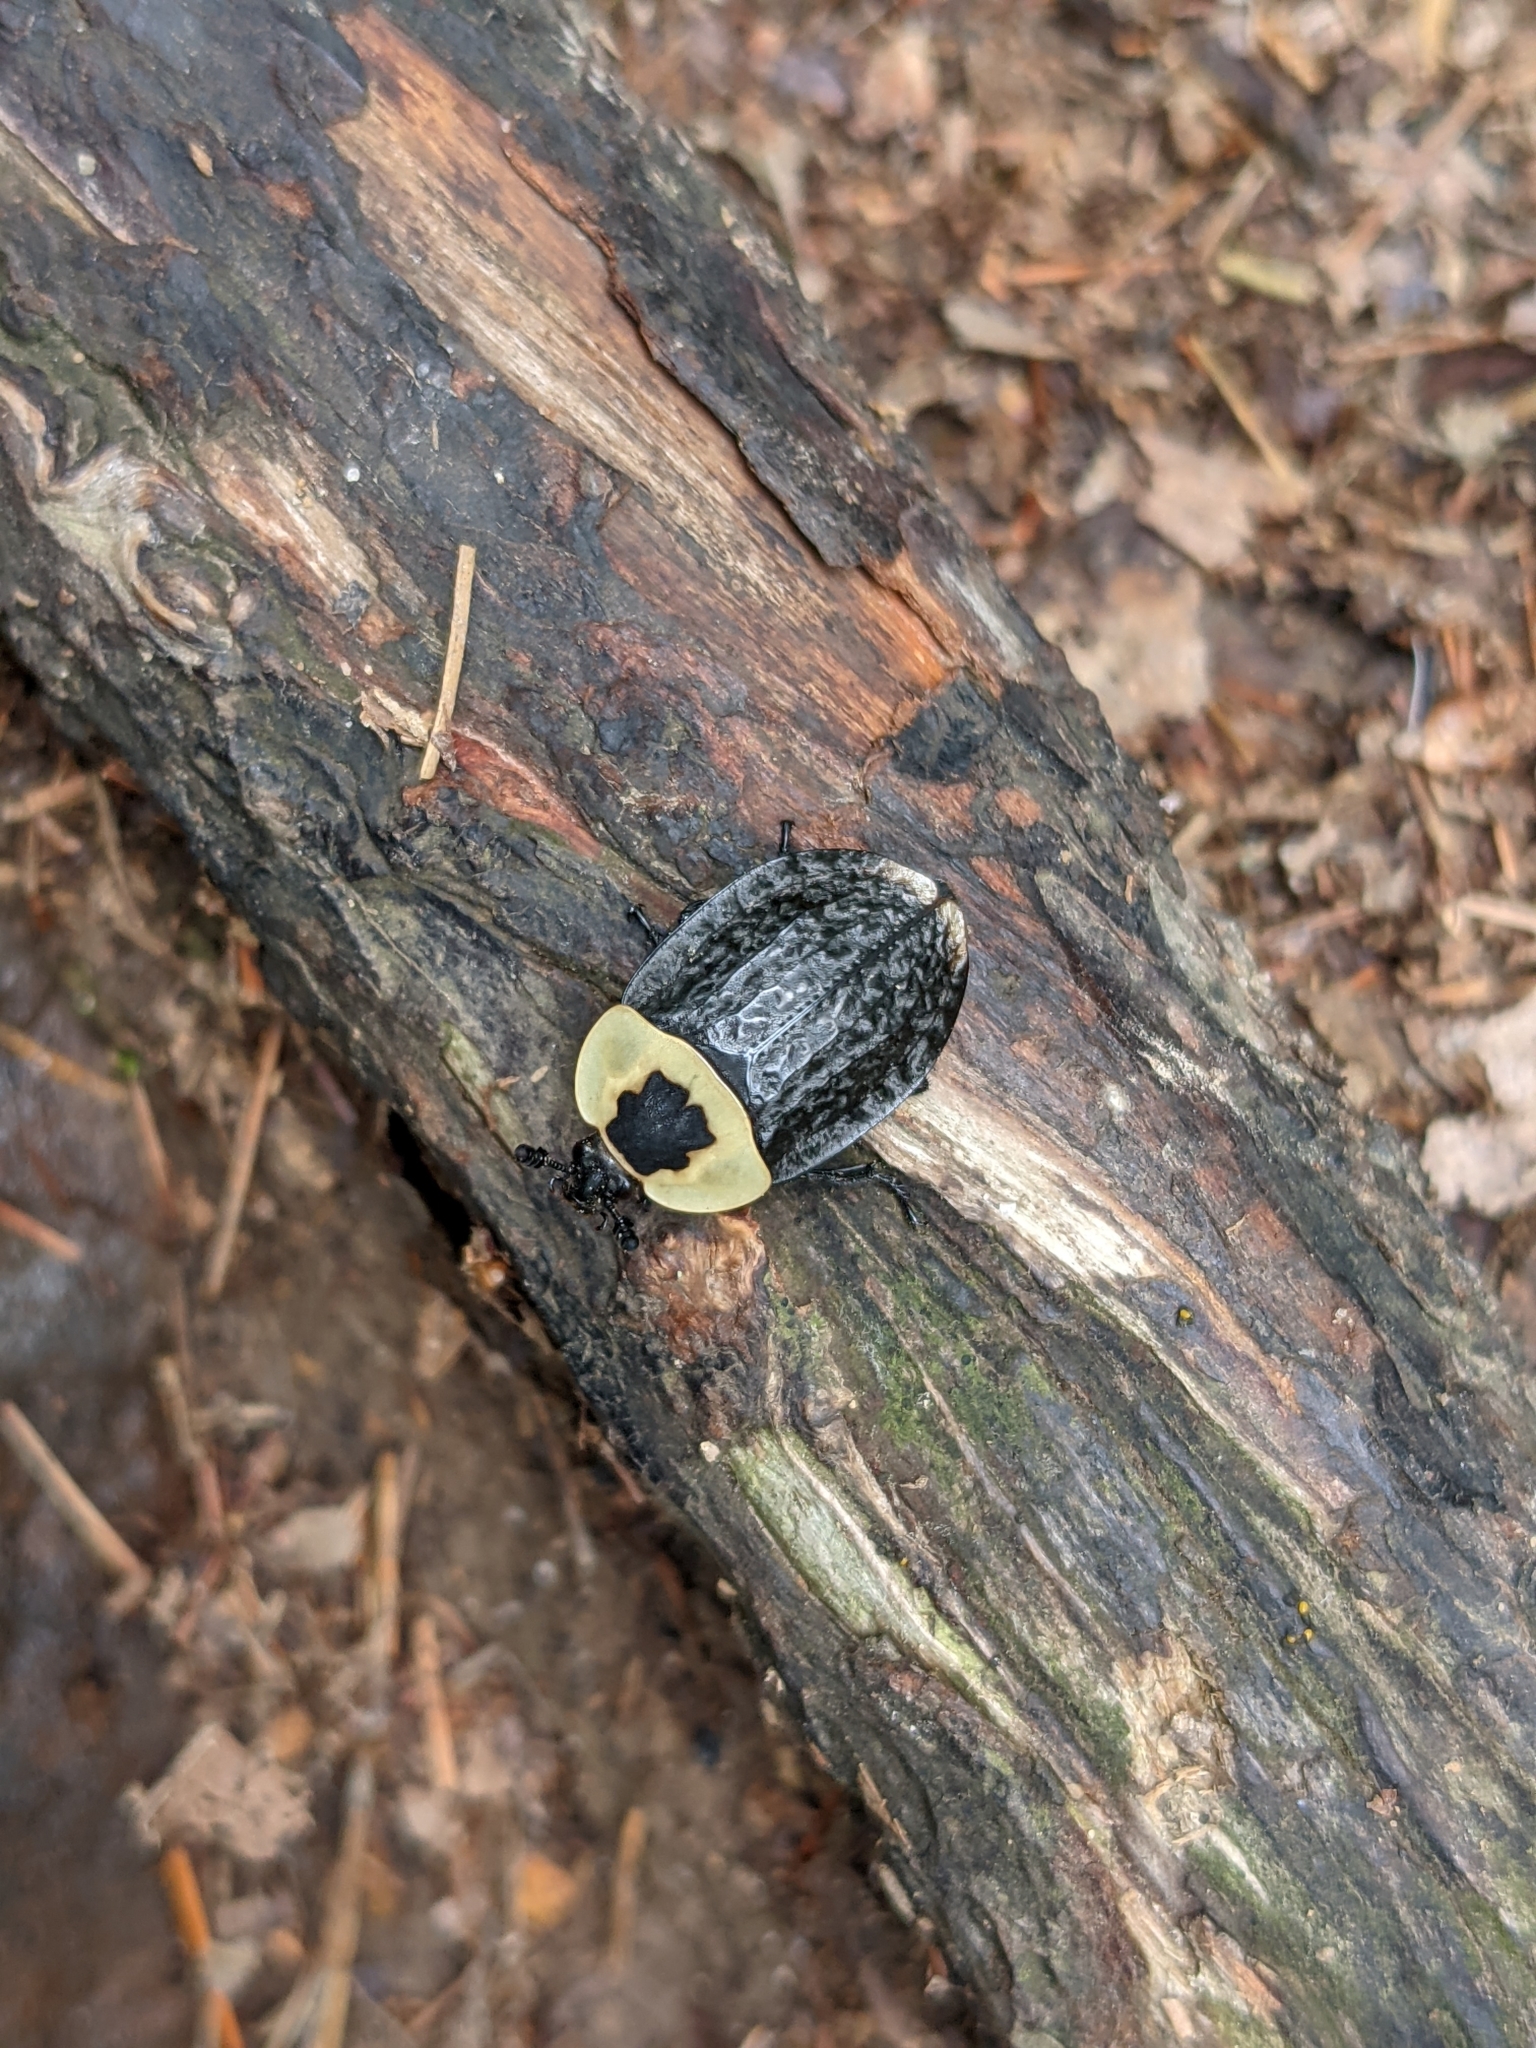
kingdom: Animalia
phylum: Arthropoda
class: Insecta
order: Coleoptera
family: Staphylinidae
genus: Necrophila
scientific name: Necrophila americana
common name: American carrion beetle
